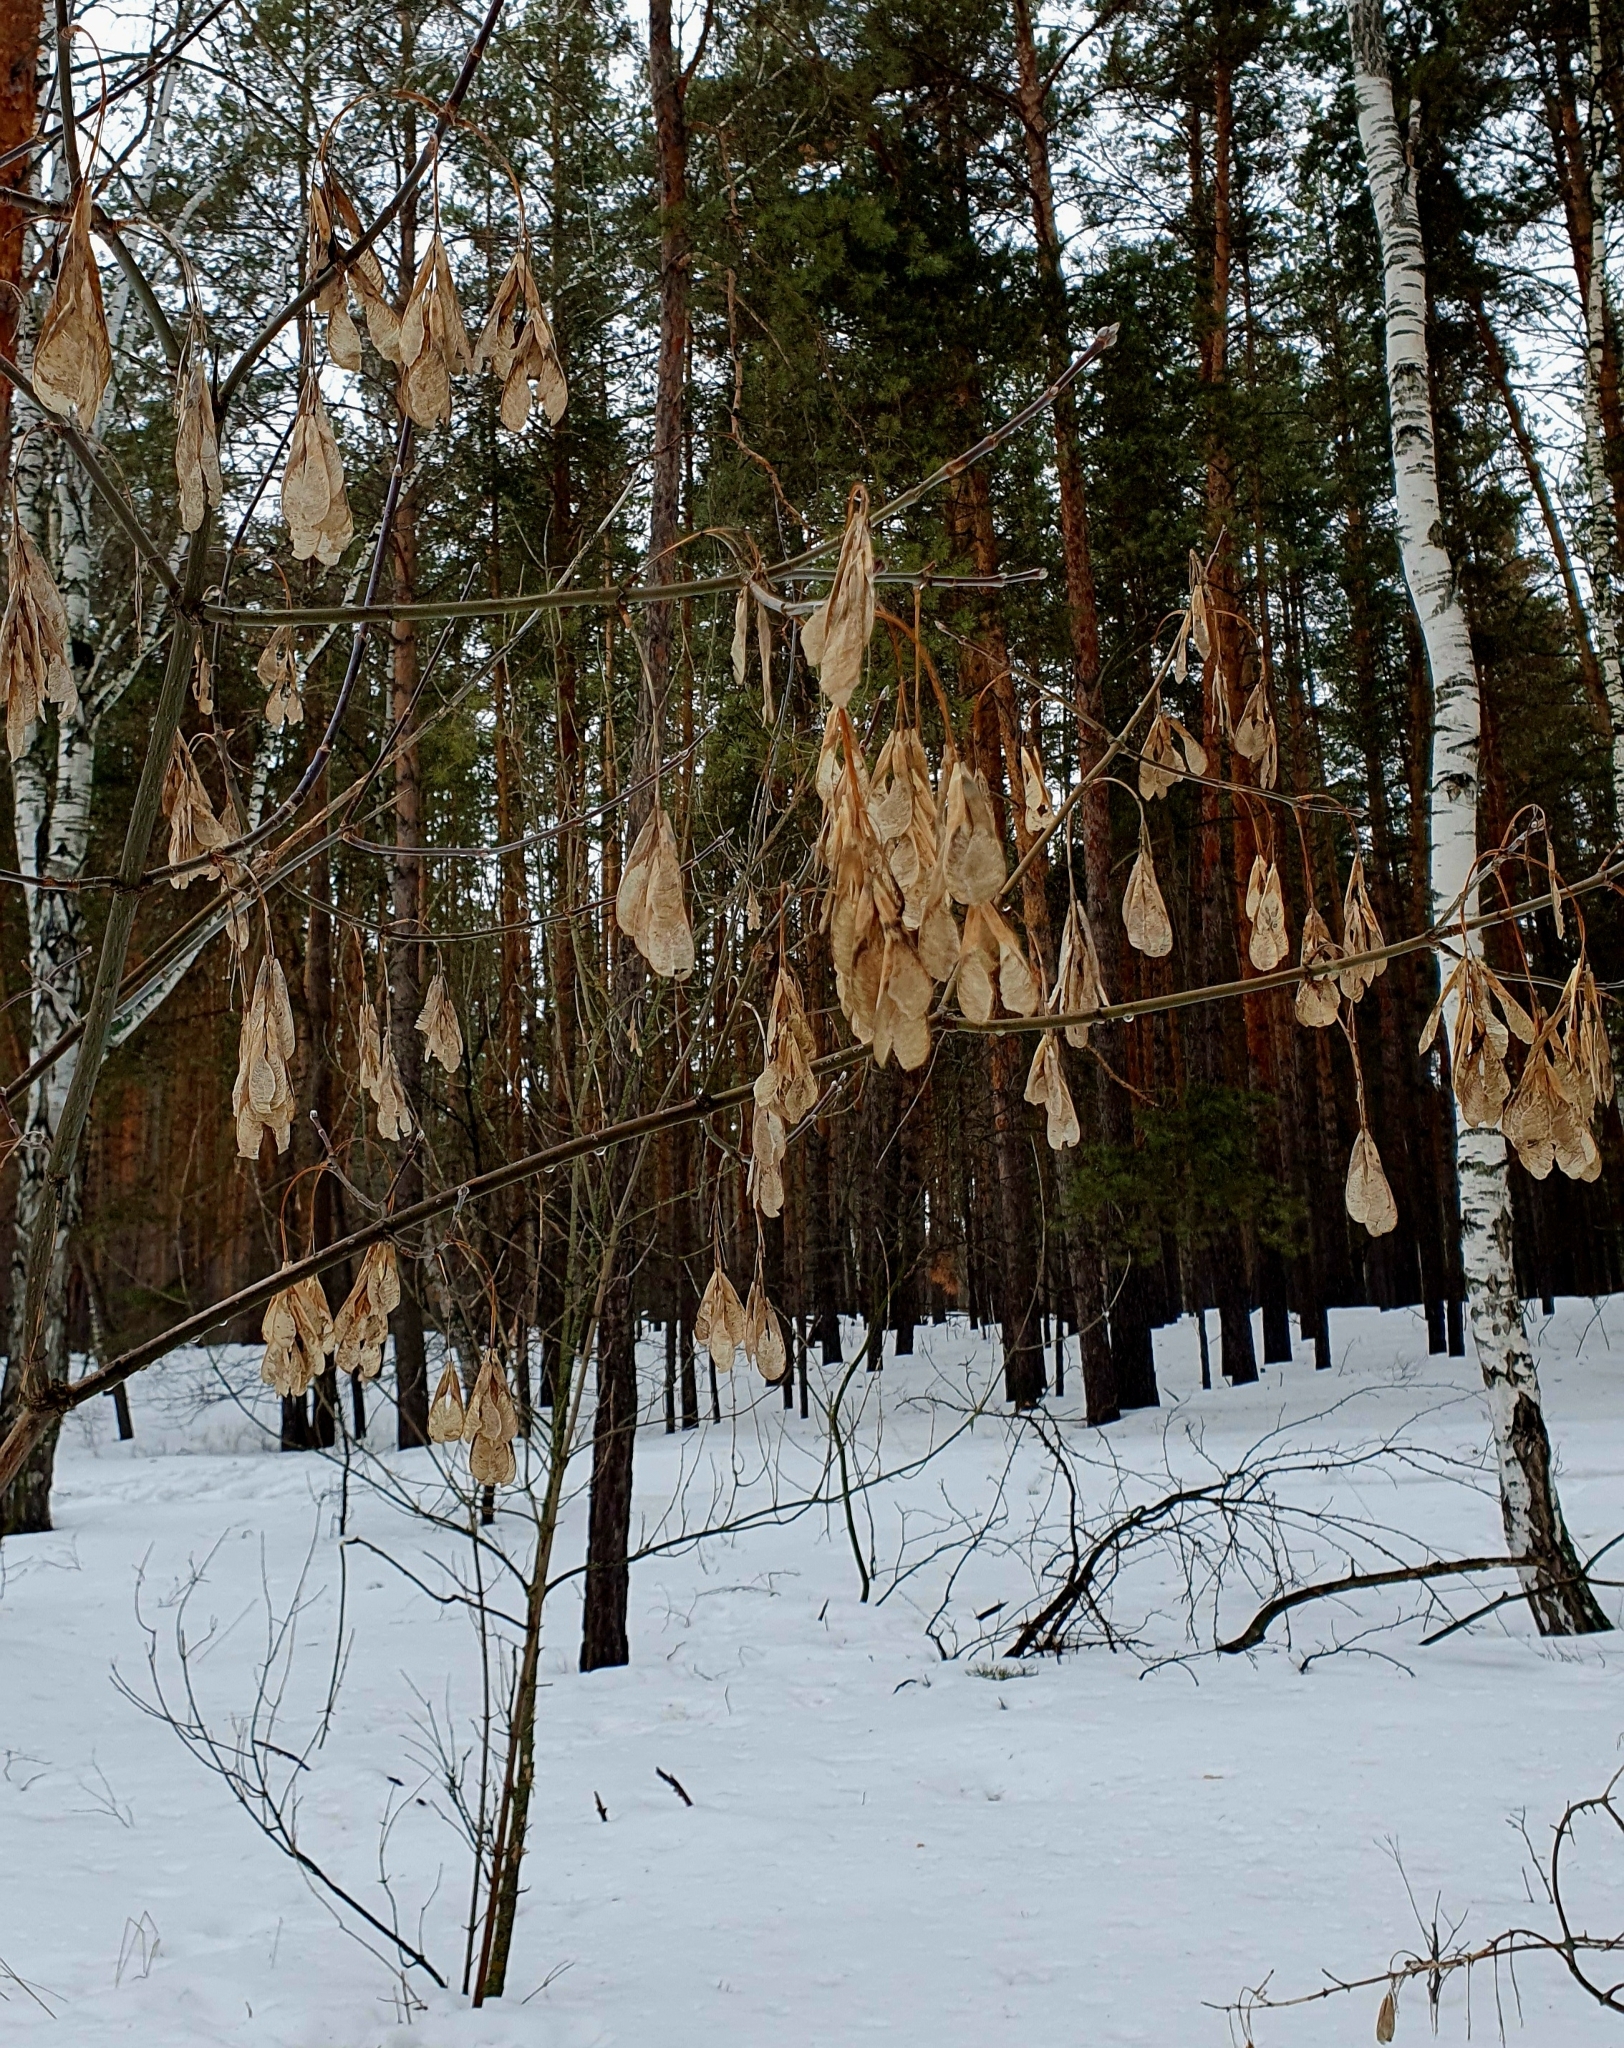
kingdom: Plantae
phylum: Tracheophyta
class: Magnoliopsida
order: Sapindales
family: Sapindaceae
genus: Acer
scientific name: Acer negundo
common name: Ashleaf maple
